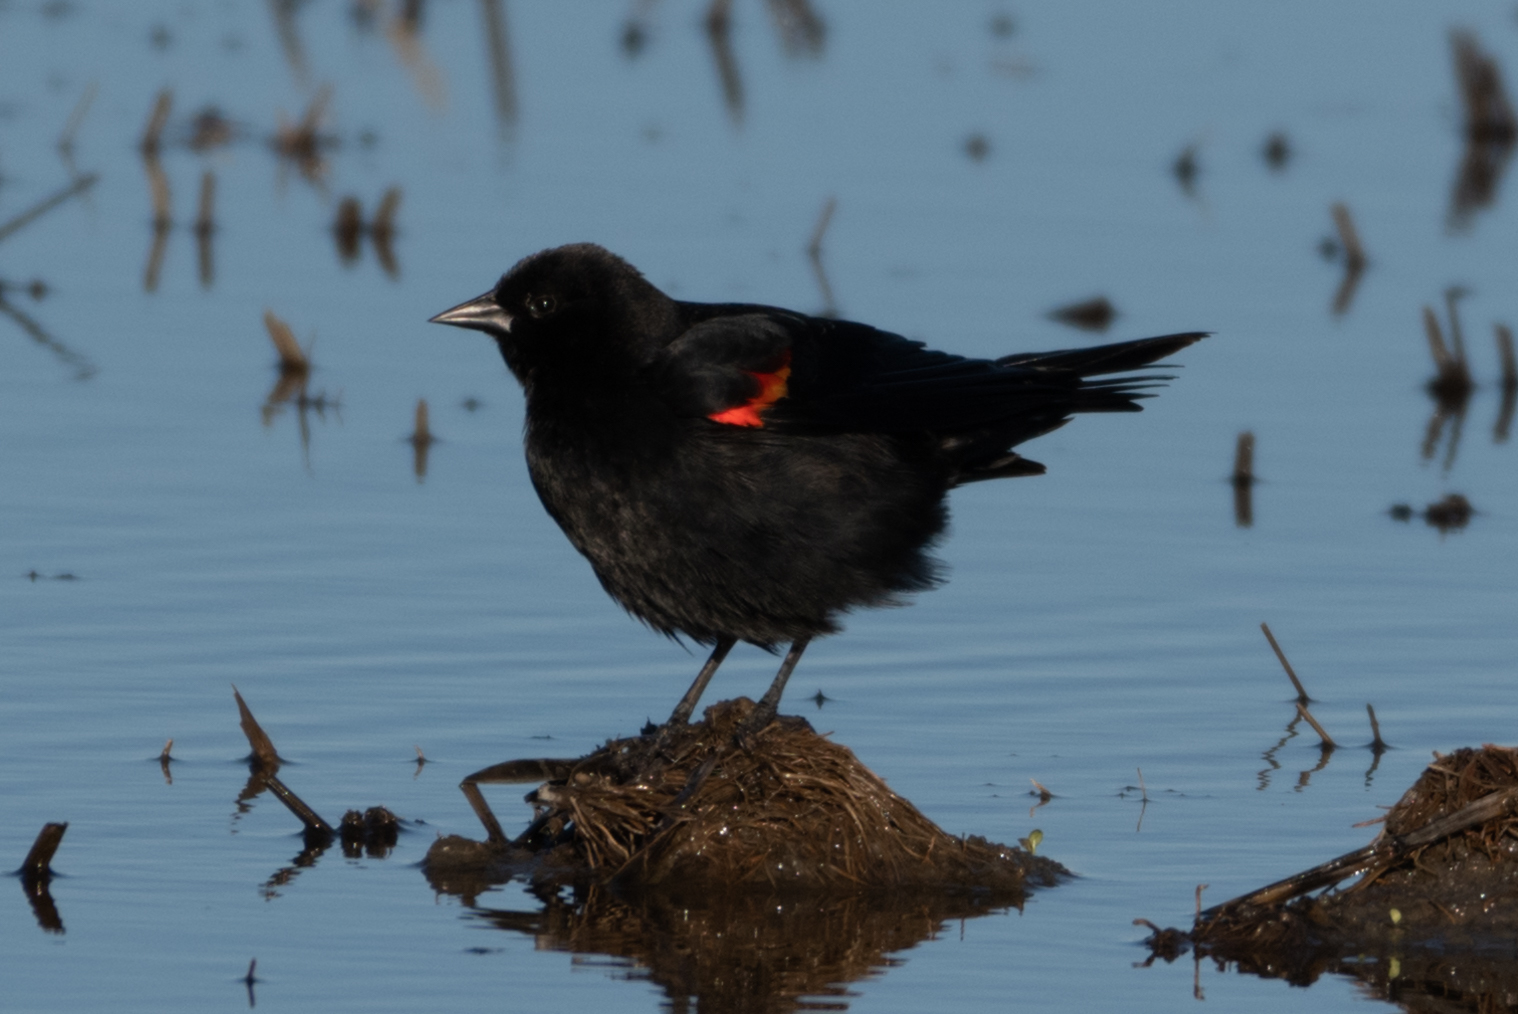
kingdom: Animalia
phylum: Chordata
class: Aves
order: Passeriformes
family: Icteridae
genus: Agelaius
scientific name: Agelaius phoeniceus
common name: Red-winged blackbird
